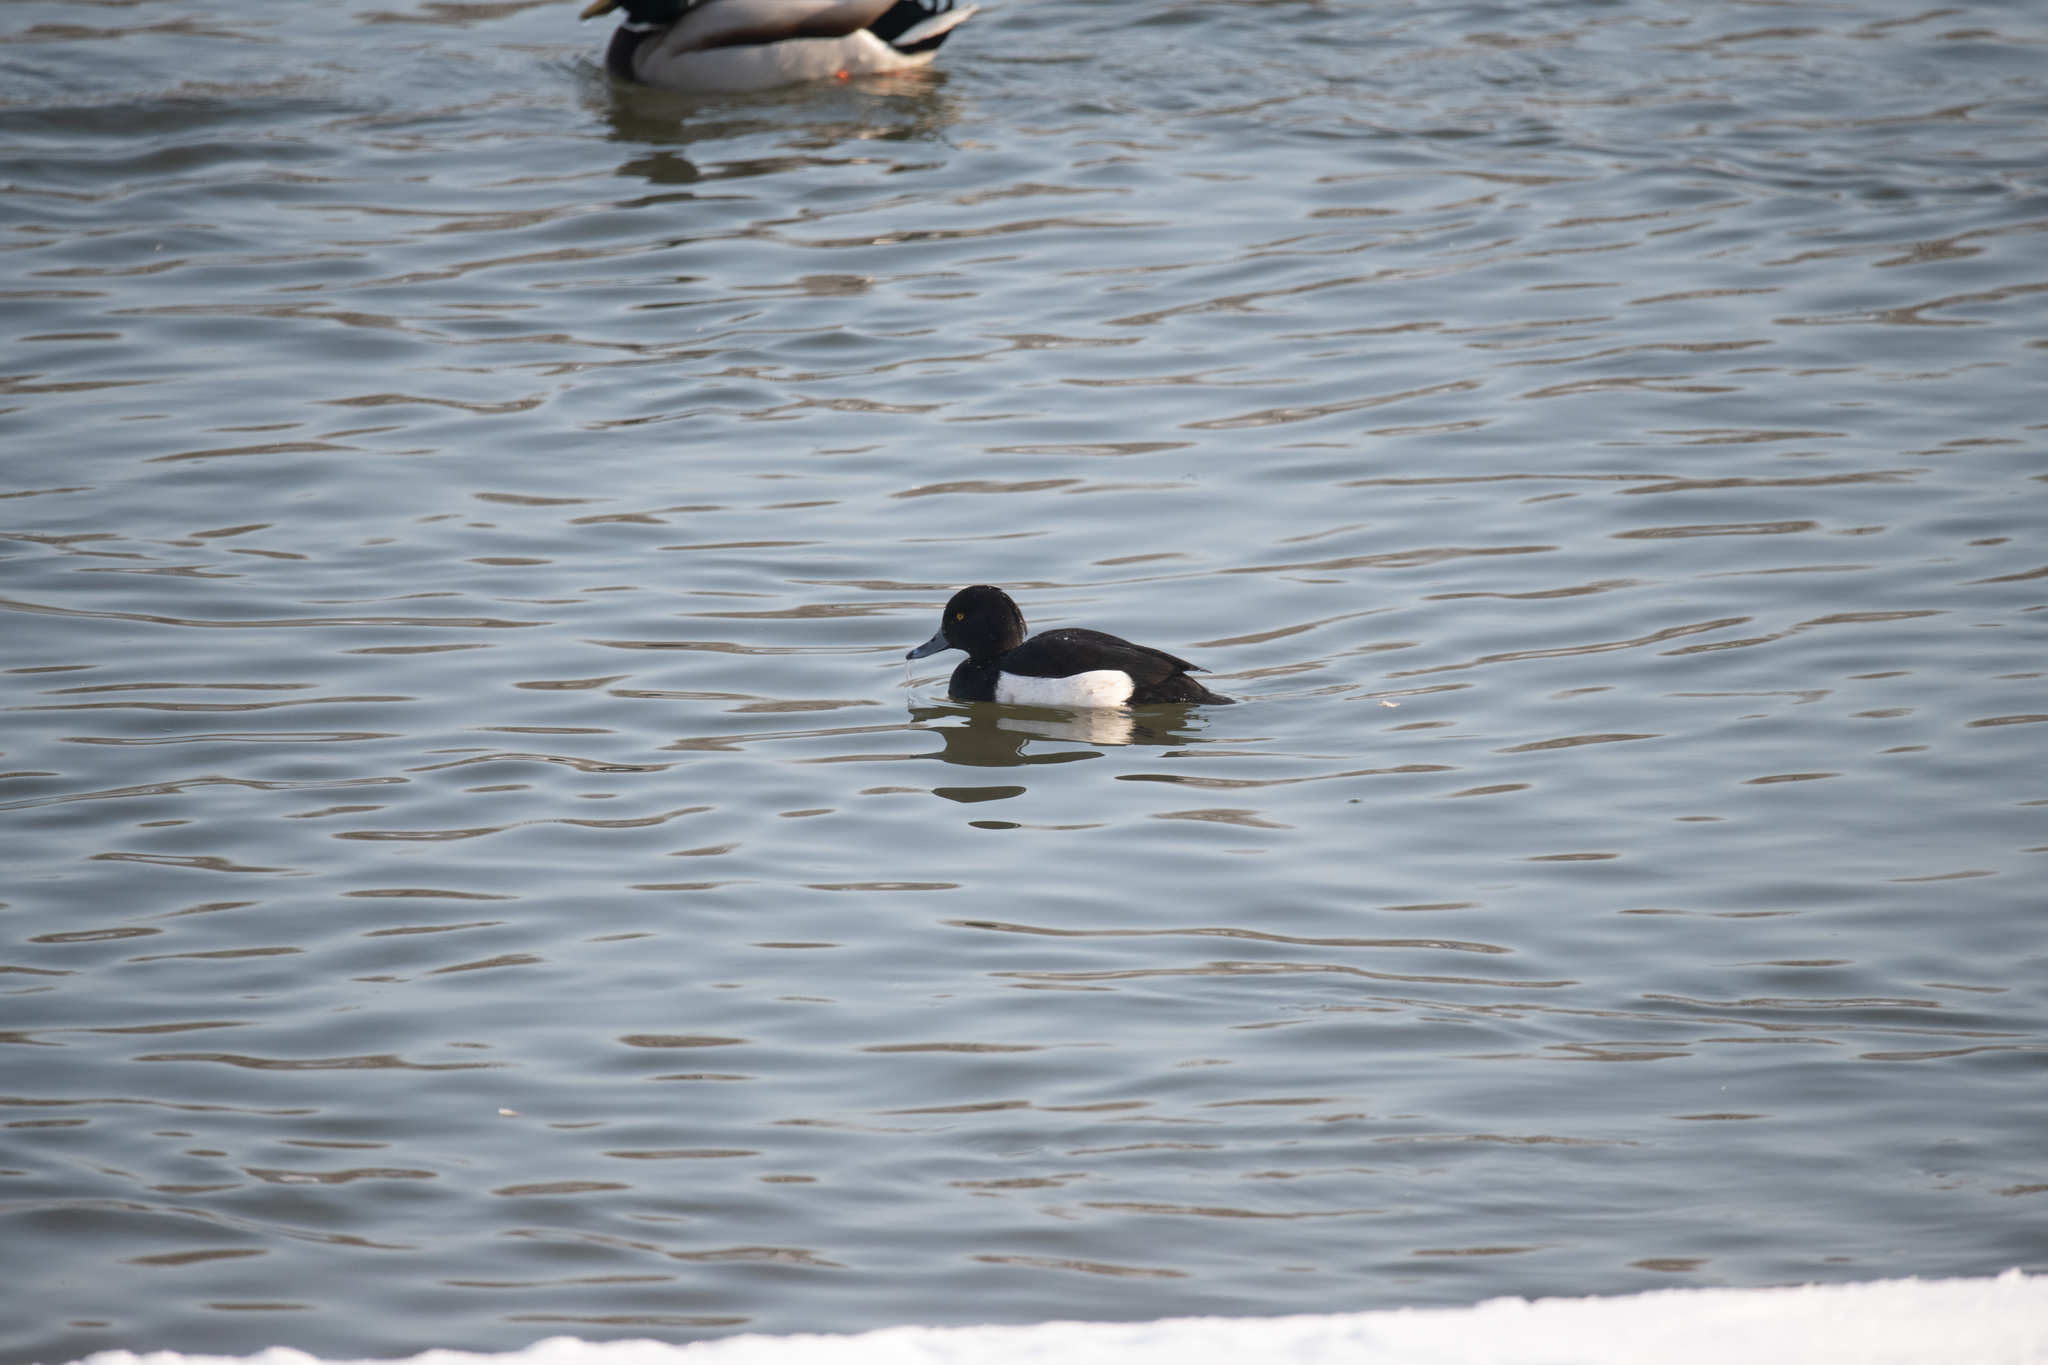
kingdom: Animalia
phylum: Chordata
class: Aves
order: Anseriformes
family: Anatidae
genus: Aythya
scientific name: Aythya fuligula
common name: Tufted duck
